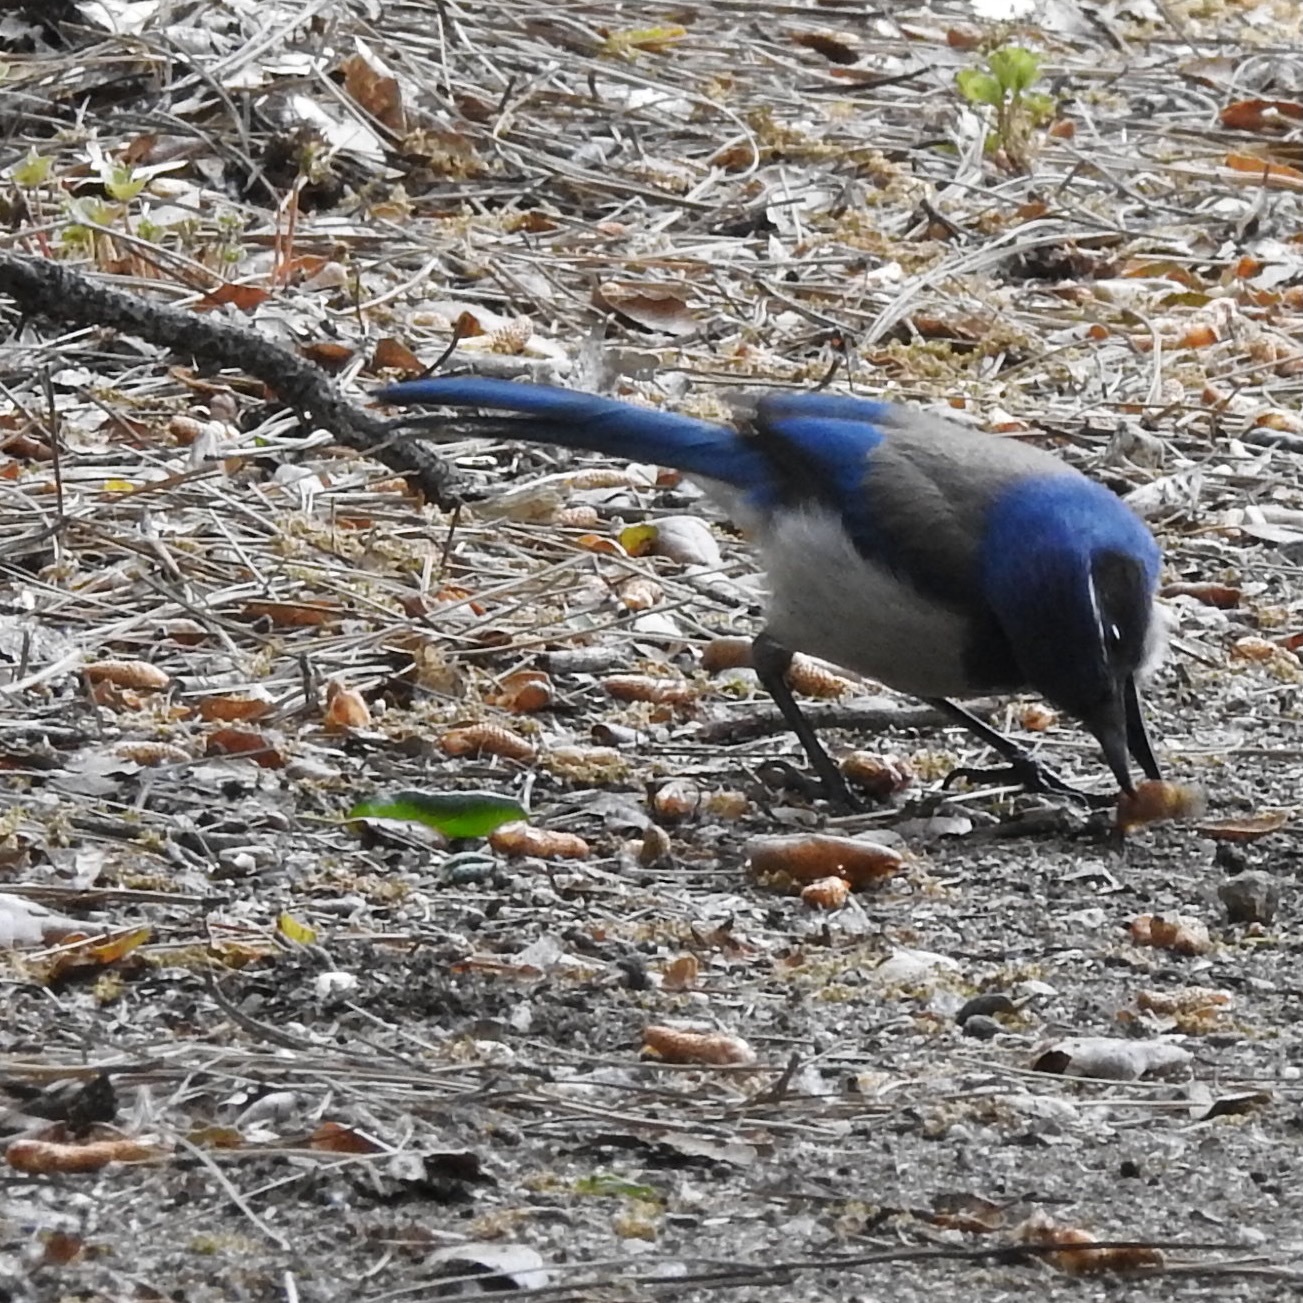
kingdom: Animalia
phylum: Chordata
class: Aves
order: Passeriformes
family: Corvidae
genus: Aphelocoma
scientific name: Aphelocoma californica
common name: California scrub-jay
